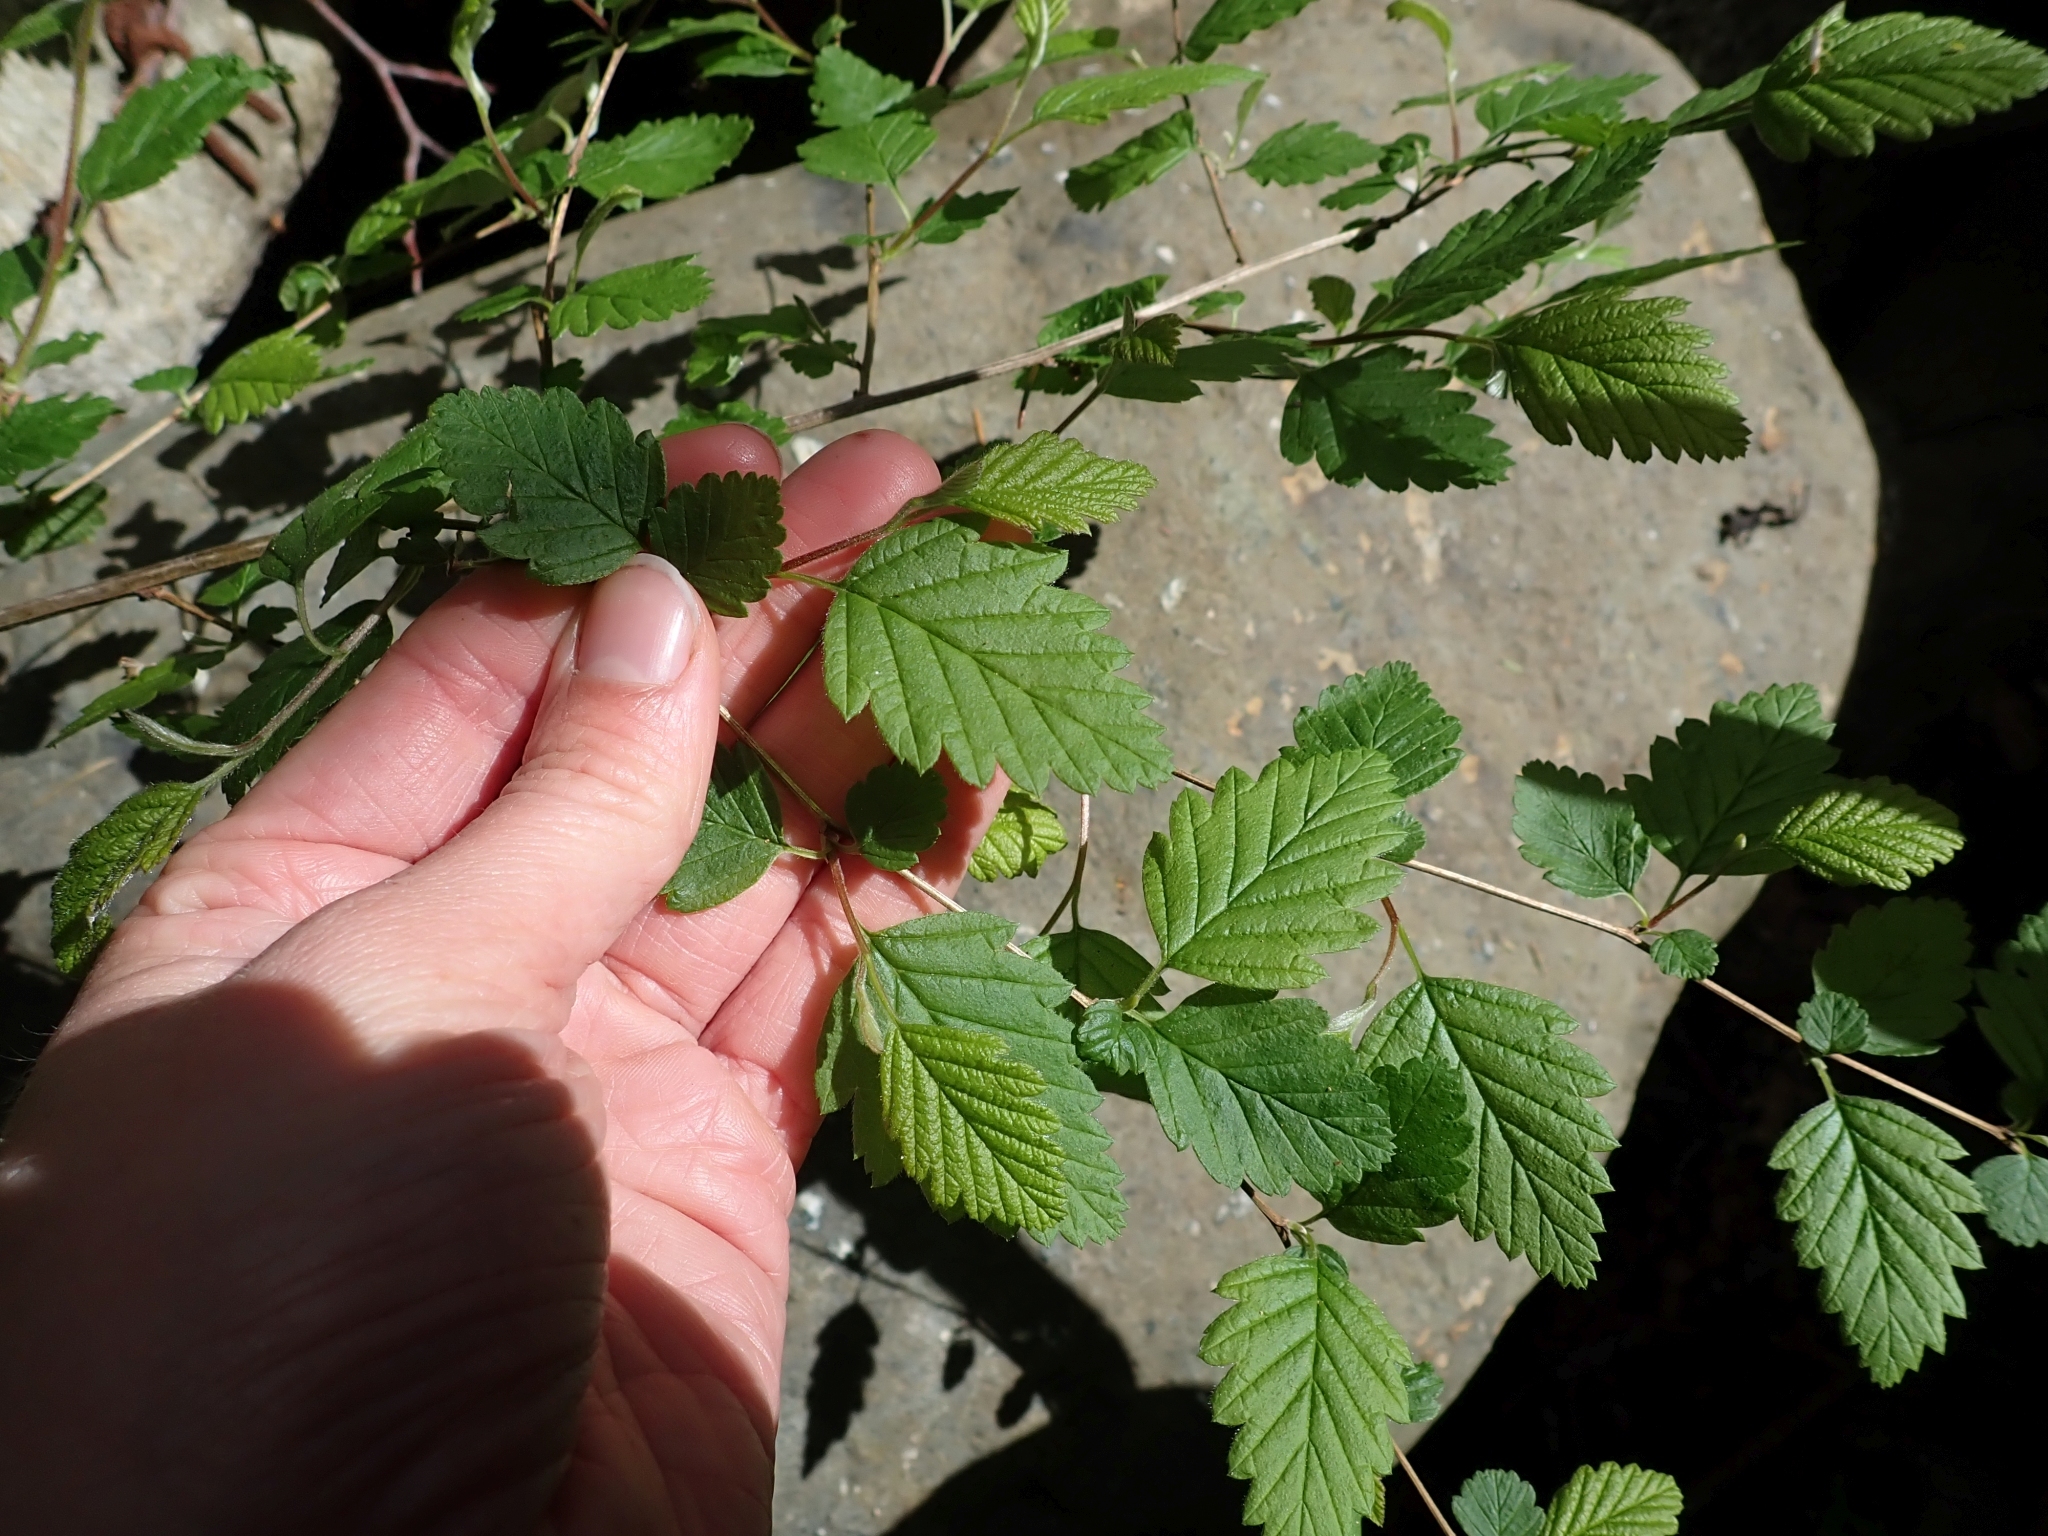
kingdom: Plantae
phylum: Tracheophyta
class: Magnoliopsida
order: Rosales
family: Rosaceae
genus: Holodiscus
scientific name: Holodiscus discolor
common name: Oceanspray
